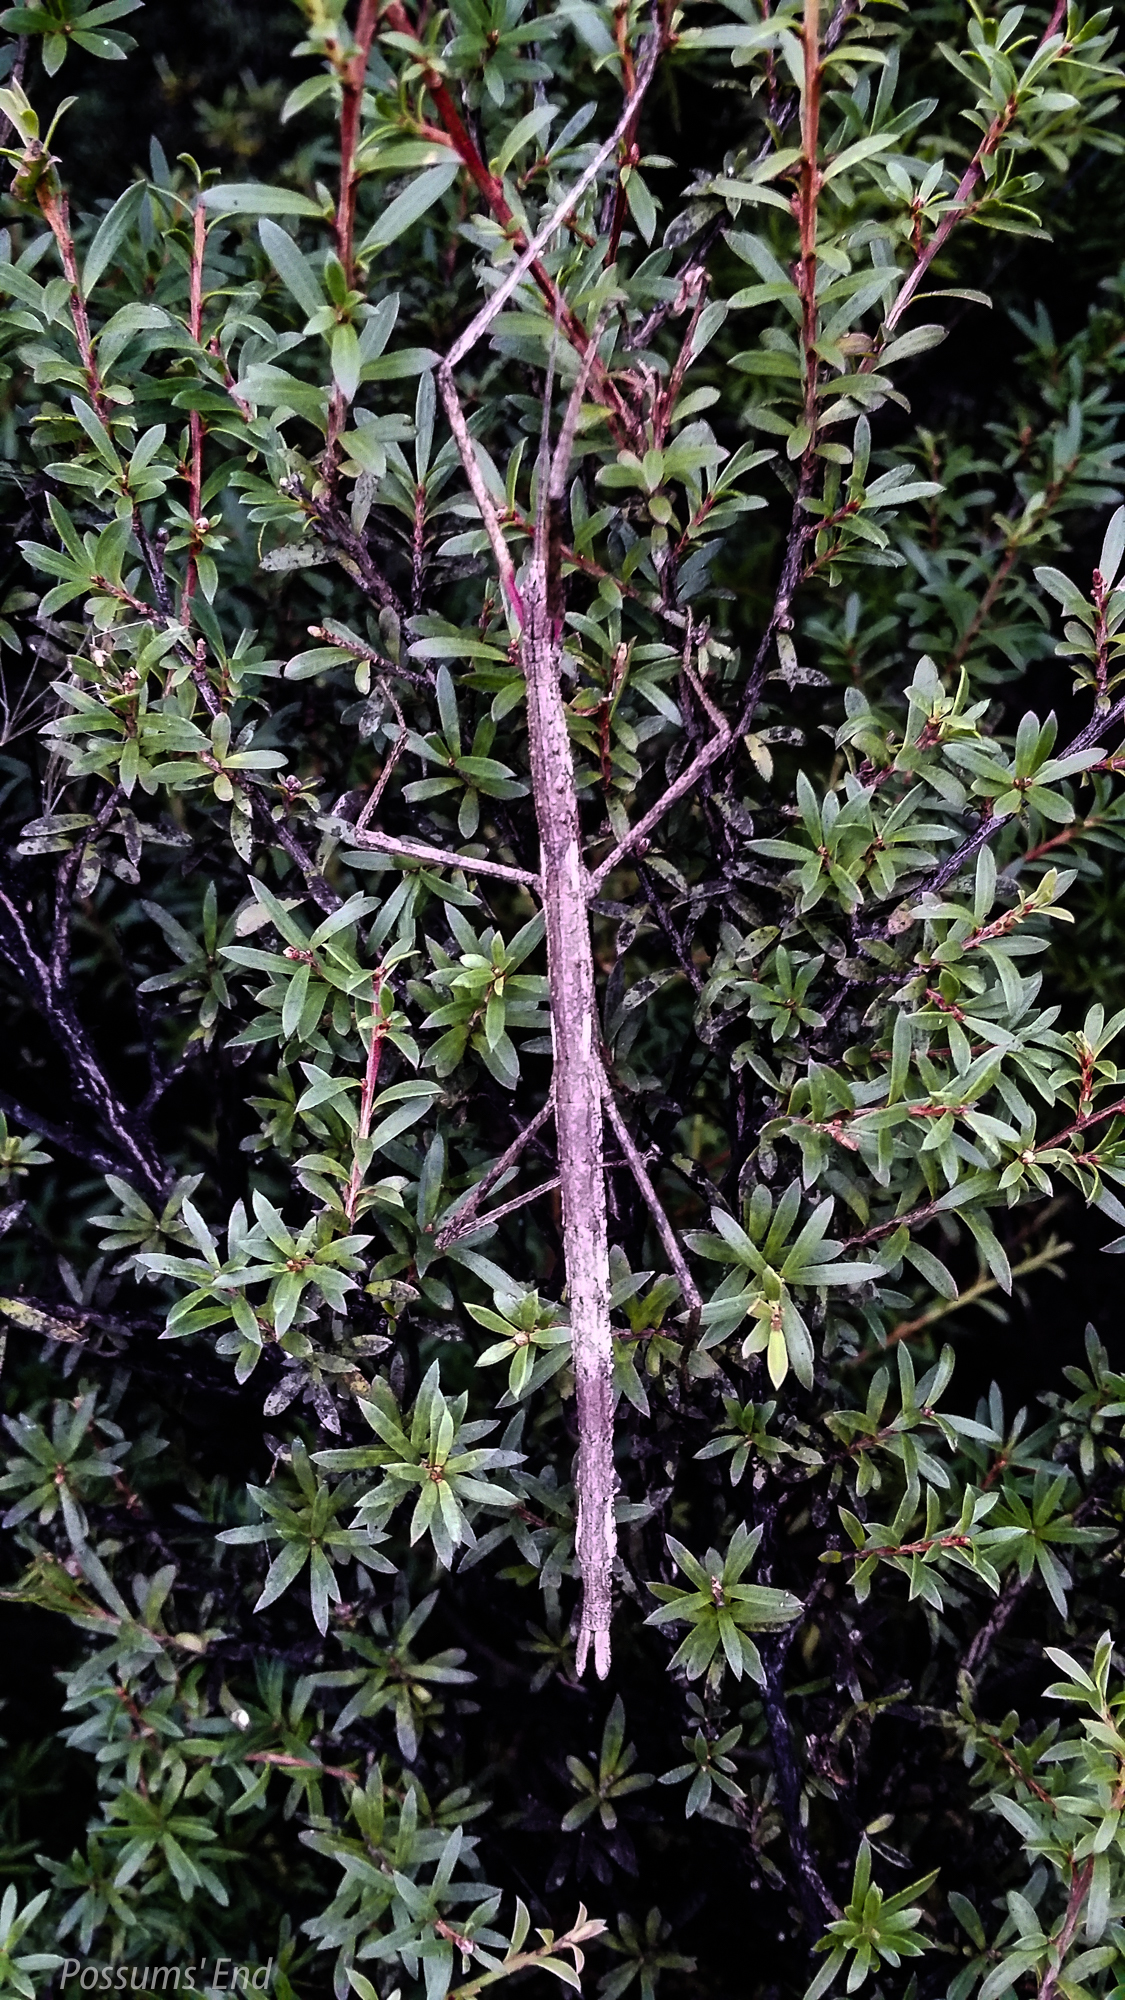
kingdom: Animalia
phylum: Arthropoda
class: Insecta
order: Phasmida
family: Phasmatidae
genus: Clitarchus
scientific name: Clitarchus hookeri
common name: Smooth stick insect
